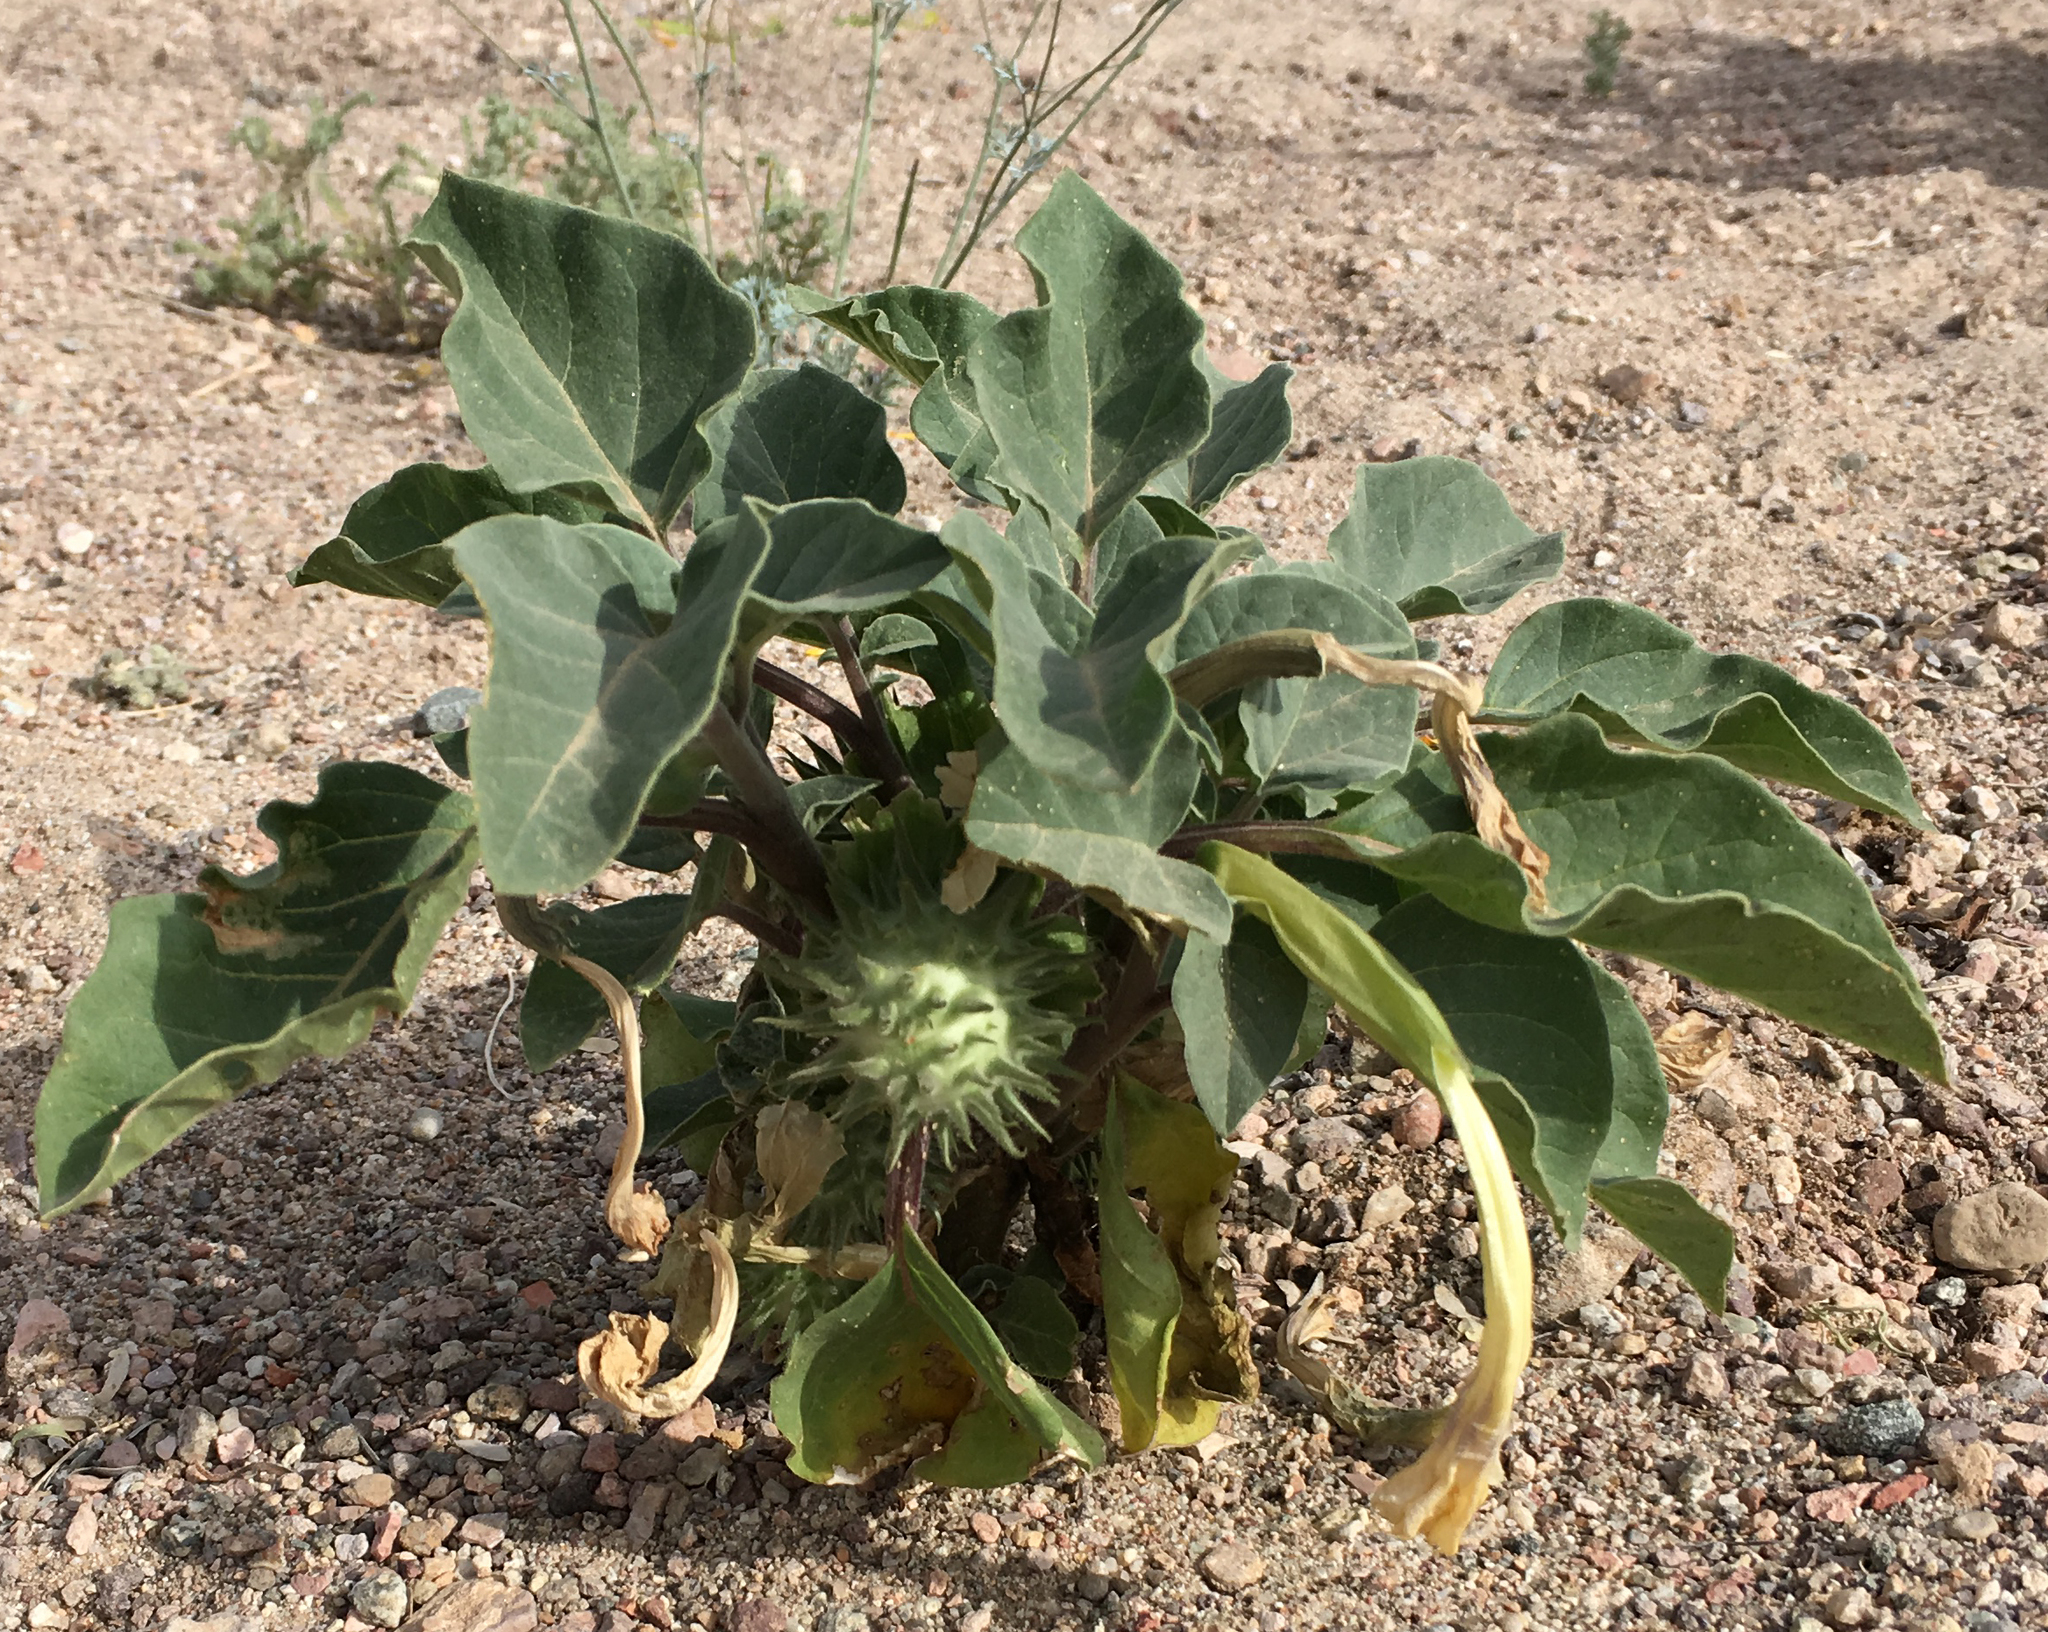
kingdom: Plantae
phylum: Tracheophyta
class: Magnoliopsida
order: Solanales
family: Solanaceae
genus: Datura
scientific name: Datura discolor
